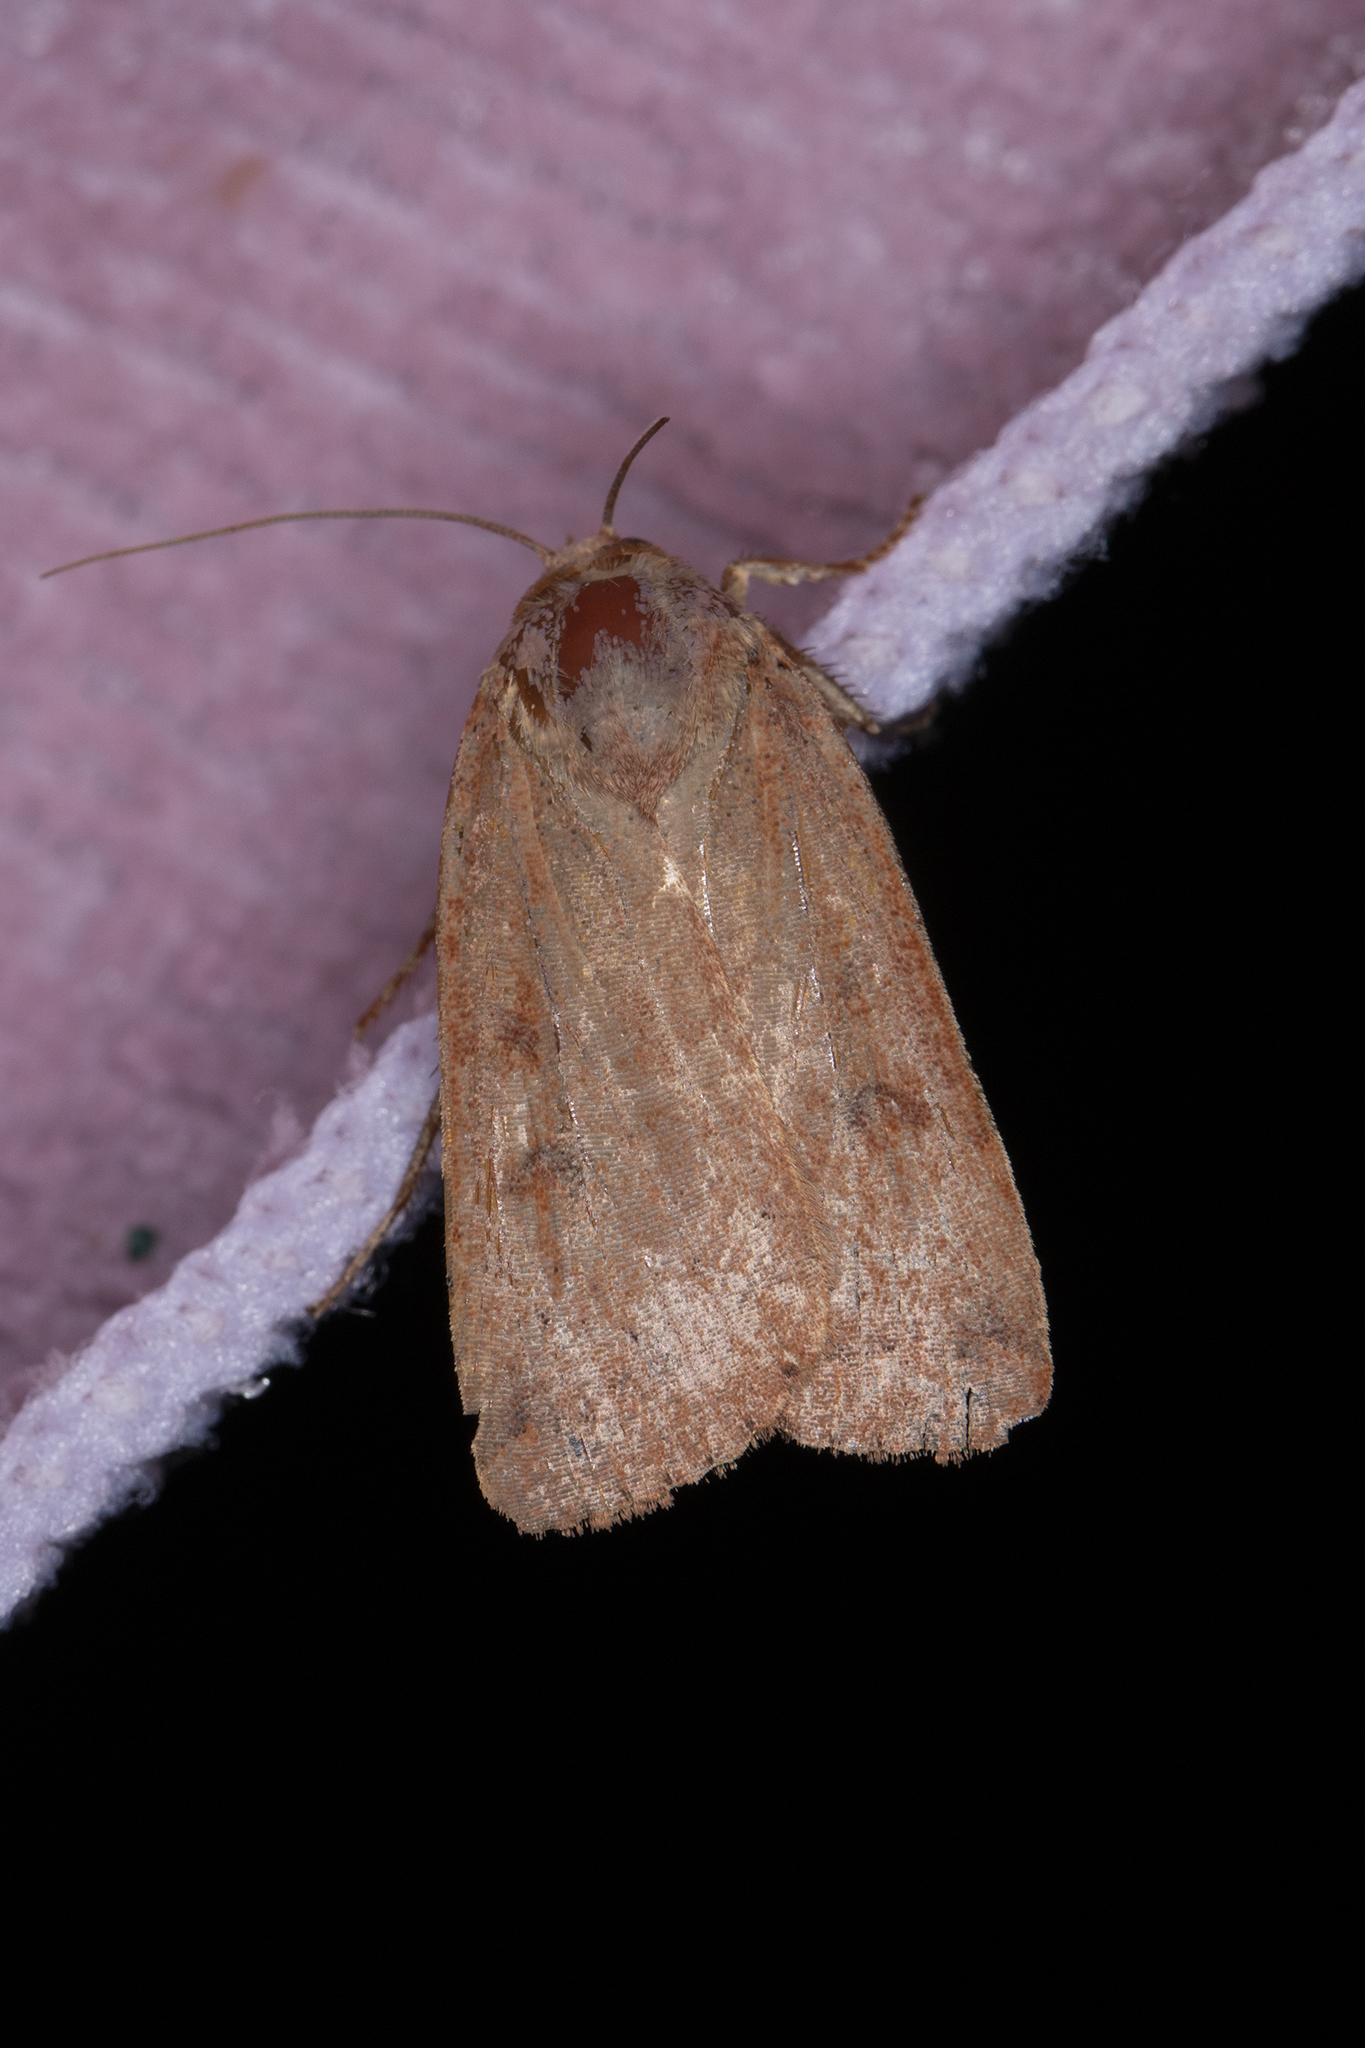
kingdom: Animalia
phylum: Arthropoda
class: Insecta
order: Lepidoptera
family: Noctuidae
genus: Noctua
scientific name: Noctua comes
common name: Lesser yellow underwing
